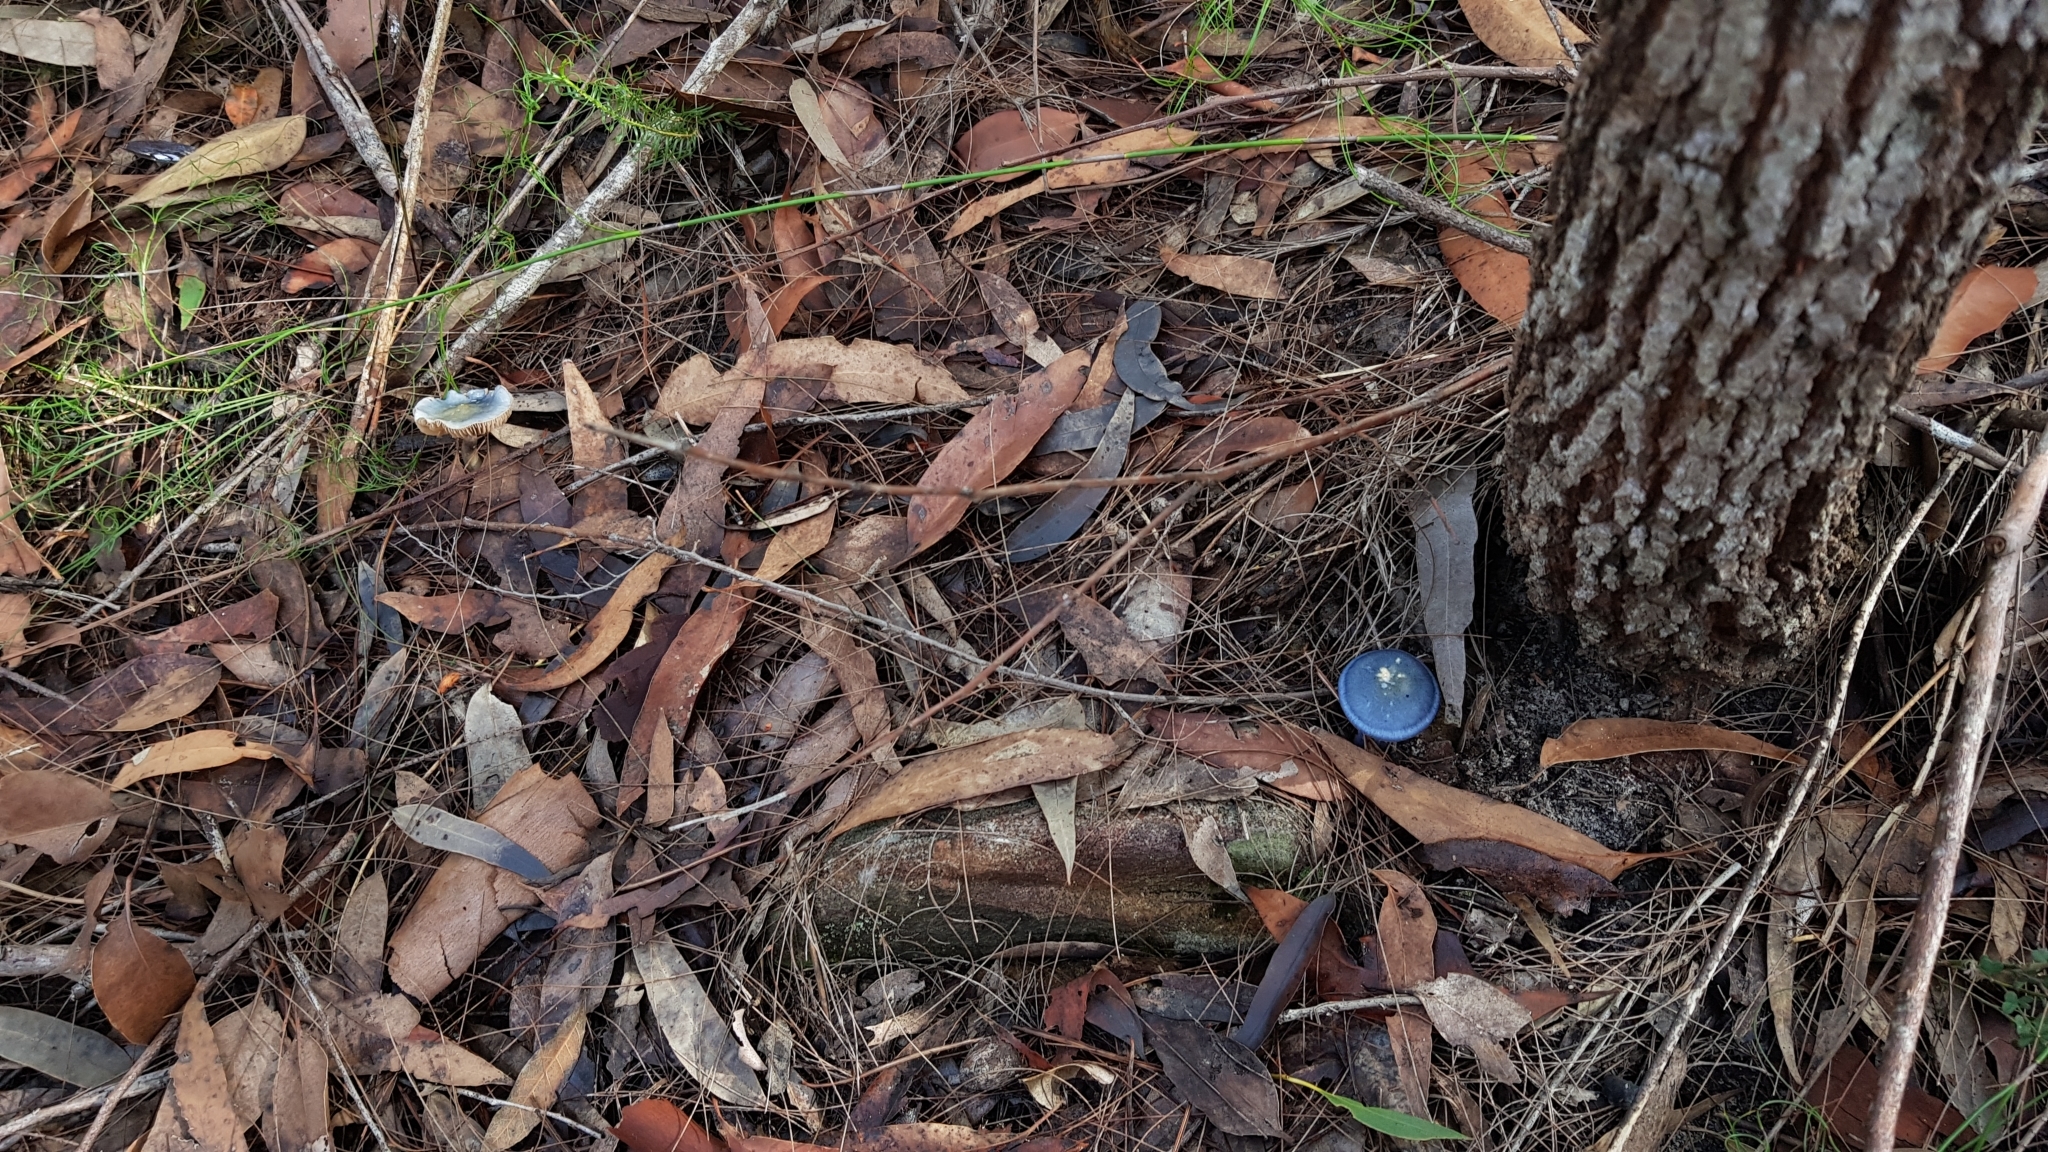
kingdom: Fungi
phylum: Basidiomycota
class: Agaricomycetes
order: Agaricales
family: Cortinariaceae
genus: Cortinarius
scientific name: Cortinarius rotundisporus
